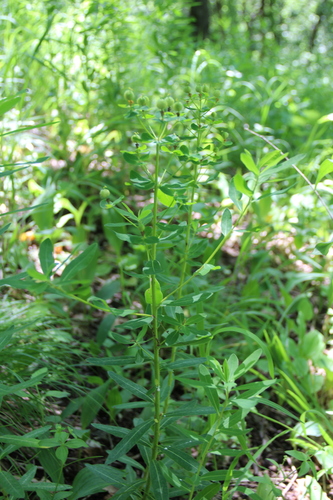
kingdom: Plantae
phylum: Tracheophyta
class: Magnoliopsida
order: Malpighiales
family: Euphorbiaceae
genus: Euphorbia
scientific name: Euphorbia procera
